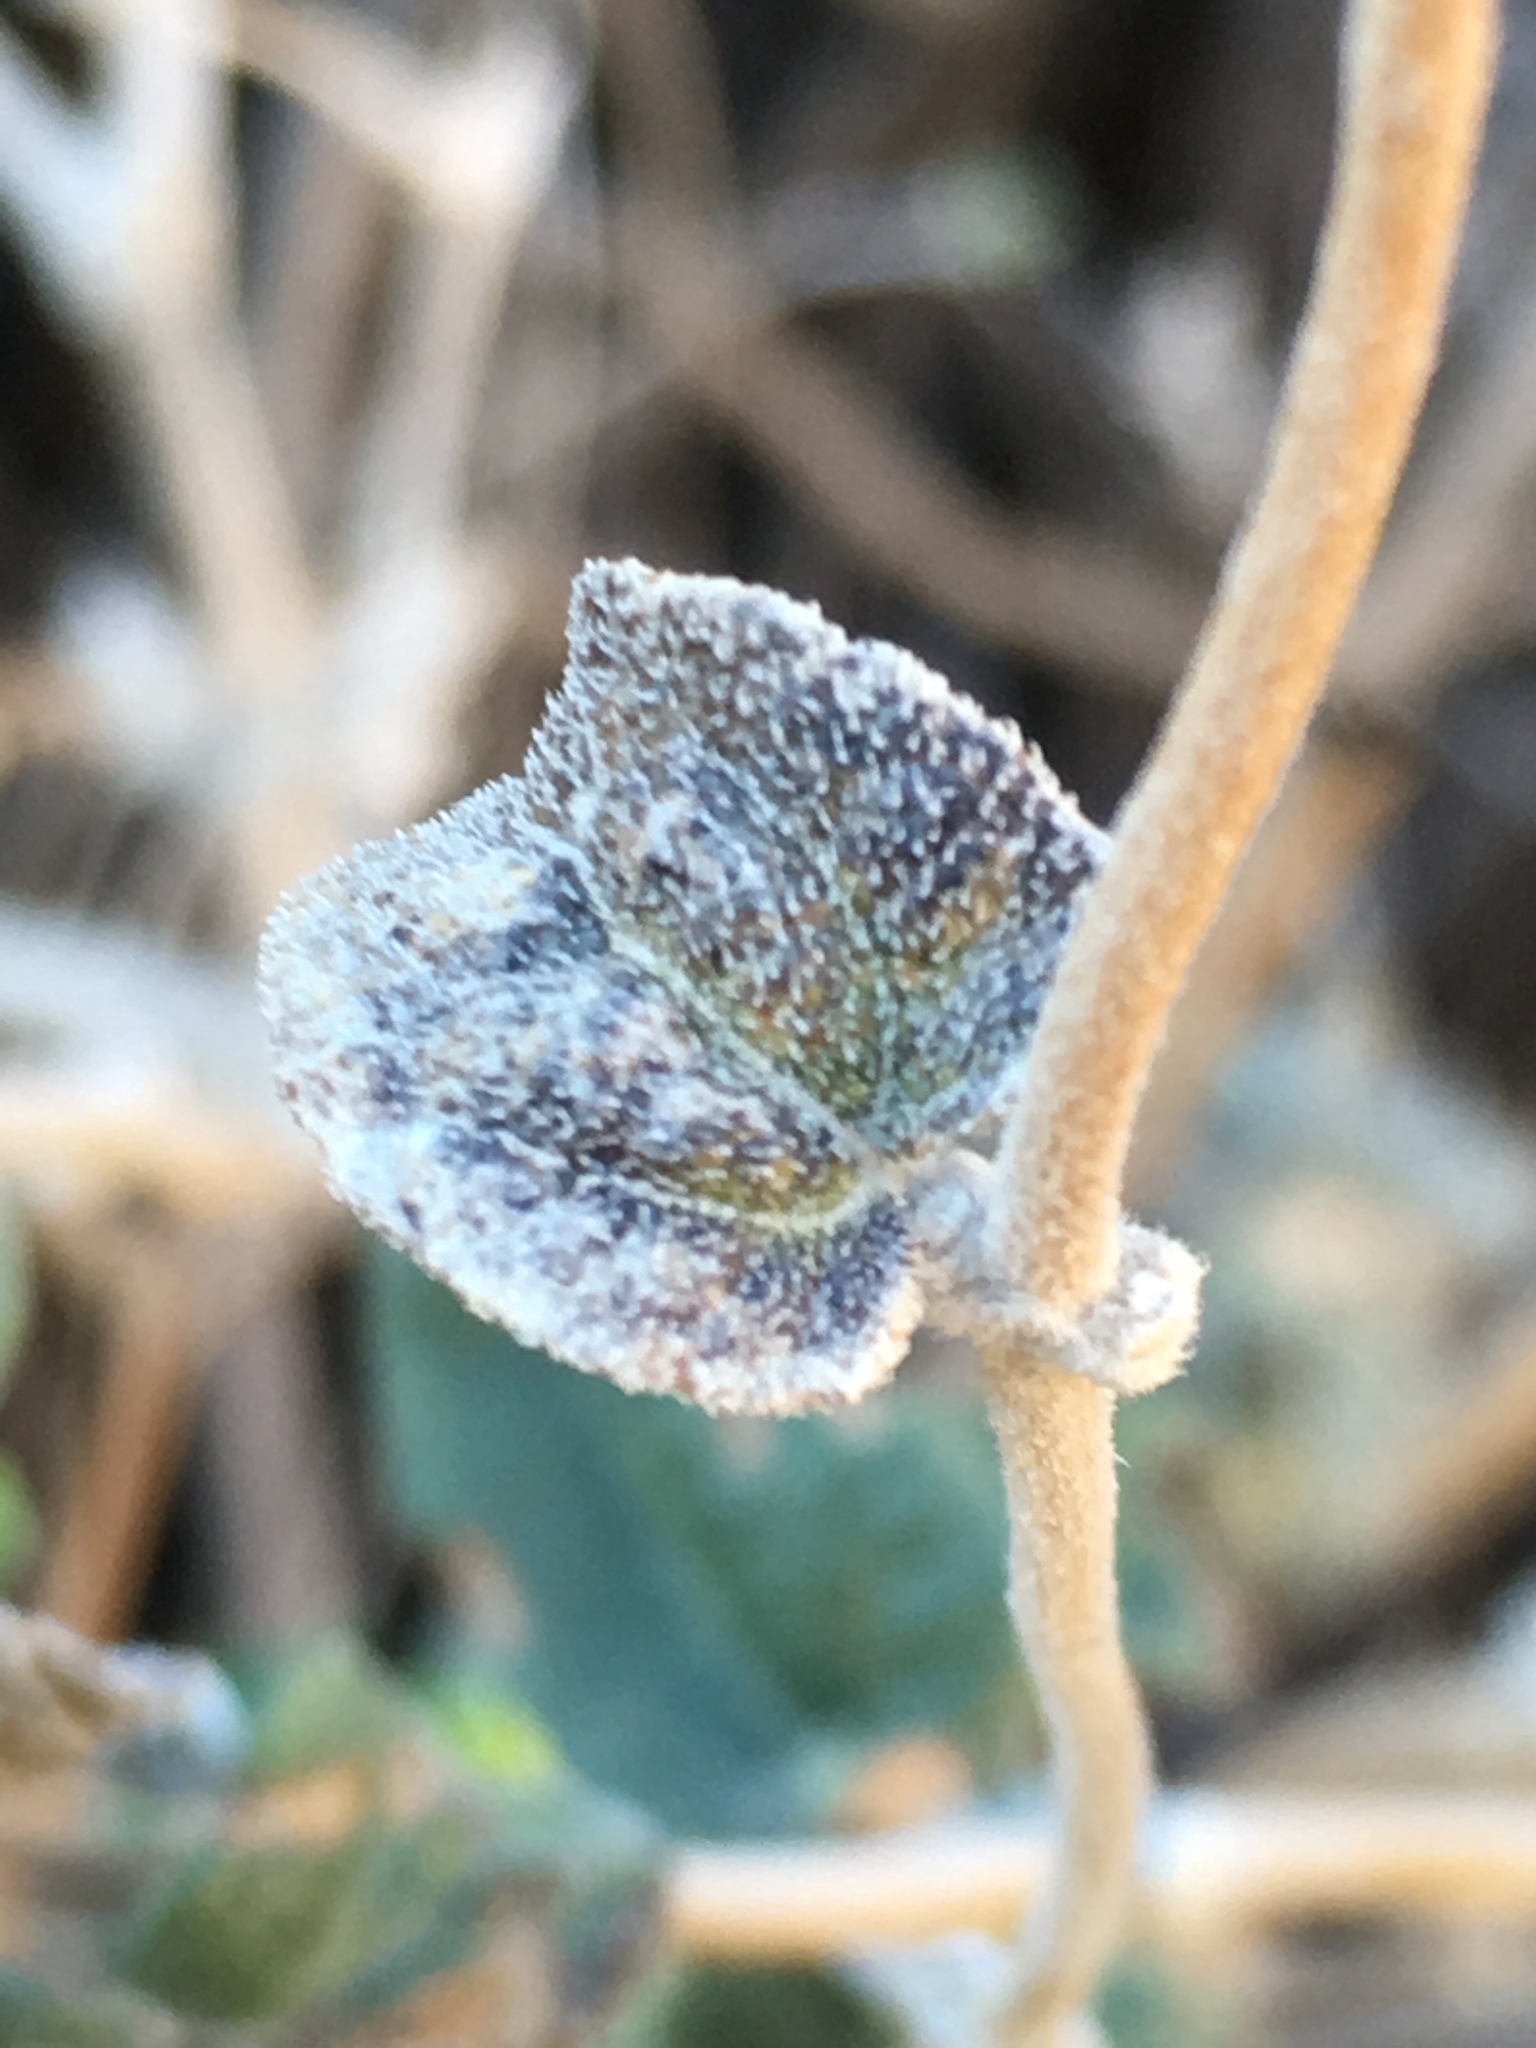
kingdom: Plantae
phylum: Tracheophyta
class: Magnoliopsida
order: Asterales
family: Asteraceae
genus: Bahiopsis
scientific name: Bahiopsis parishii
